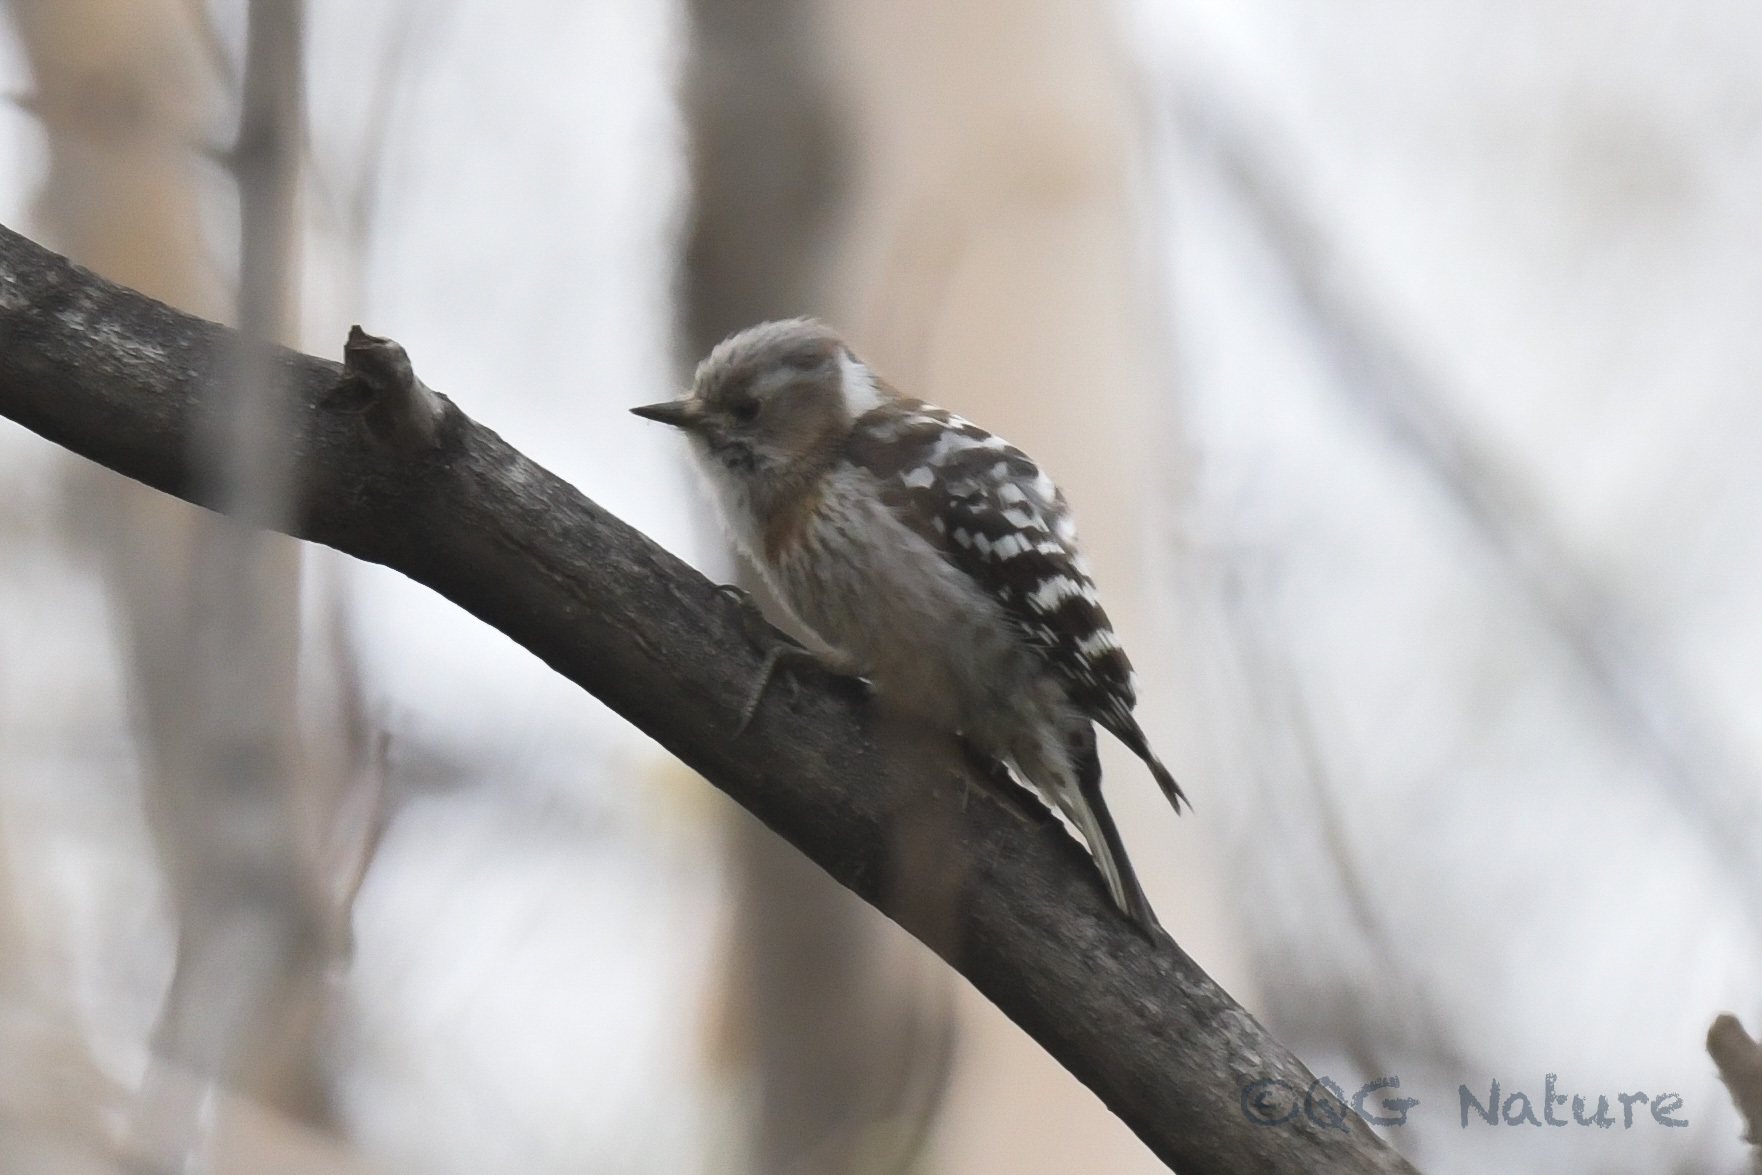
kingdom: Animalia
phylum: Chordata
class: Aves
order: Piciformes
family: Picidae
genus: Yungipicus
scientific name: Yungipicus kizuki
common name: Japanese pygmy woodpecker
